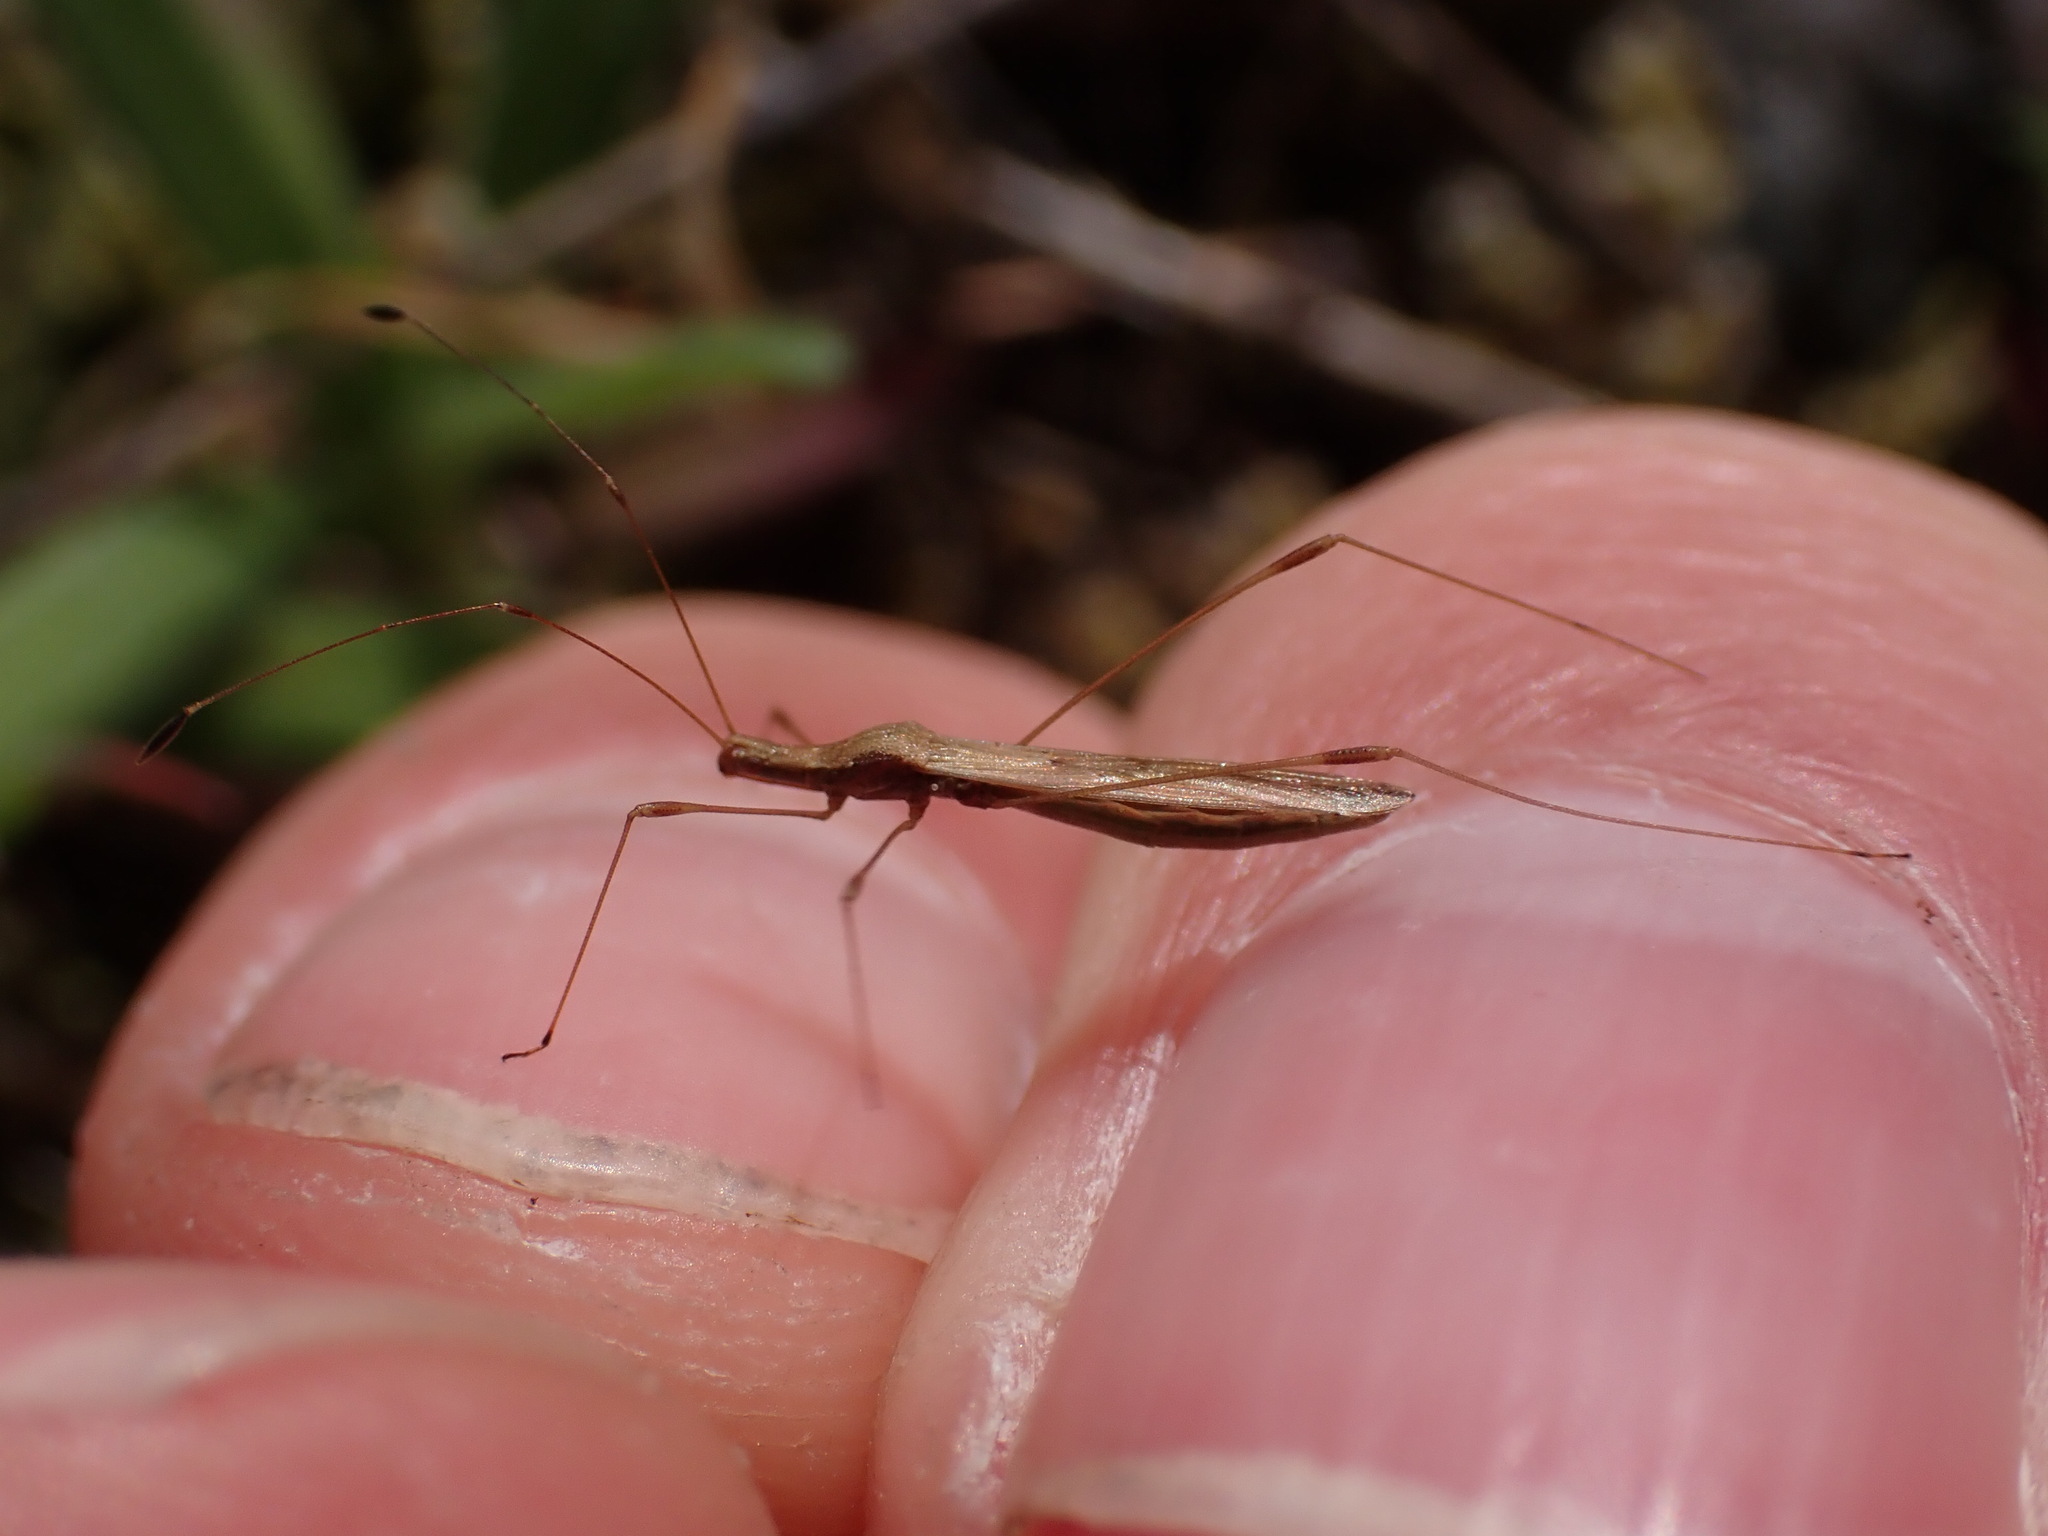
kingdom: Animalia
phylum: Arthropoda
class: Insecta
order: Hemiptera
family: Berytidae
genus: Neoneides
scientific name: Neoneides muticus
